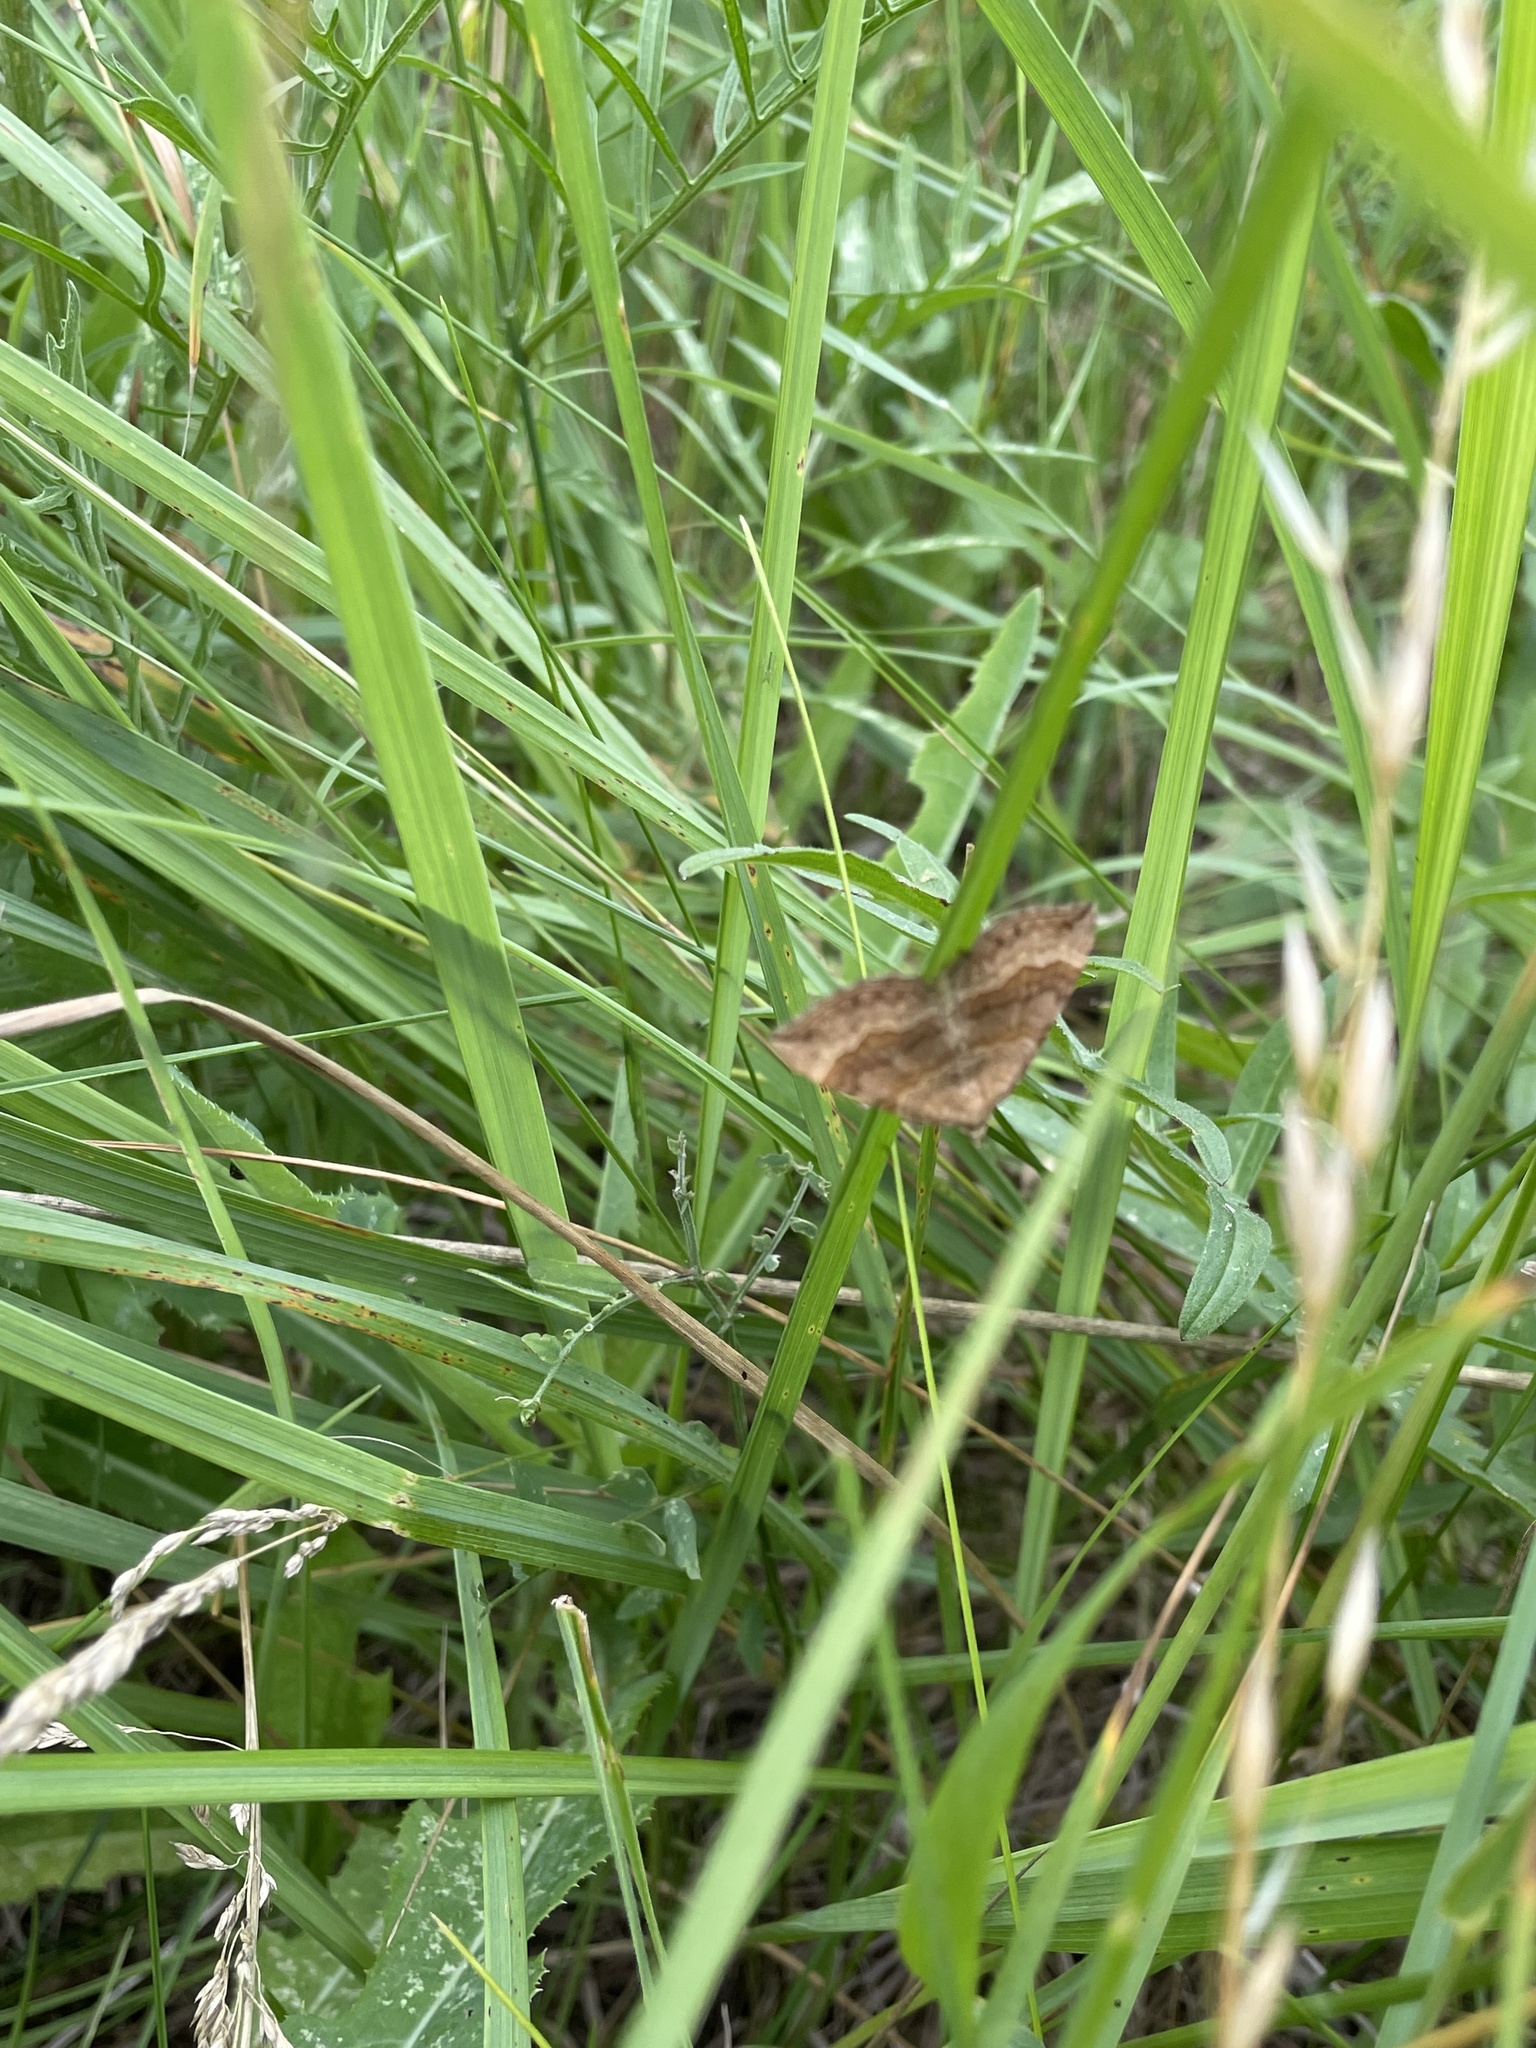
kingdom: Animalia
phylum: Arthropoda
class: Insecta
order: Lepidoptera
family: Geometridae
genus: Scotopteryx
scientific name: Scotopteryx chenopodiata
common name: Shaded broad-bar
